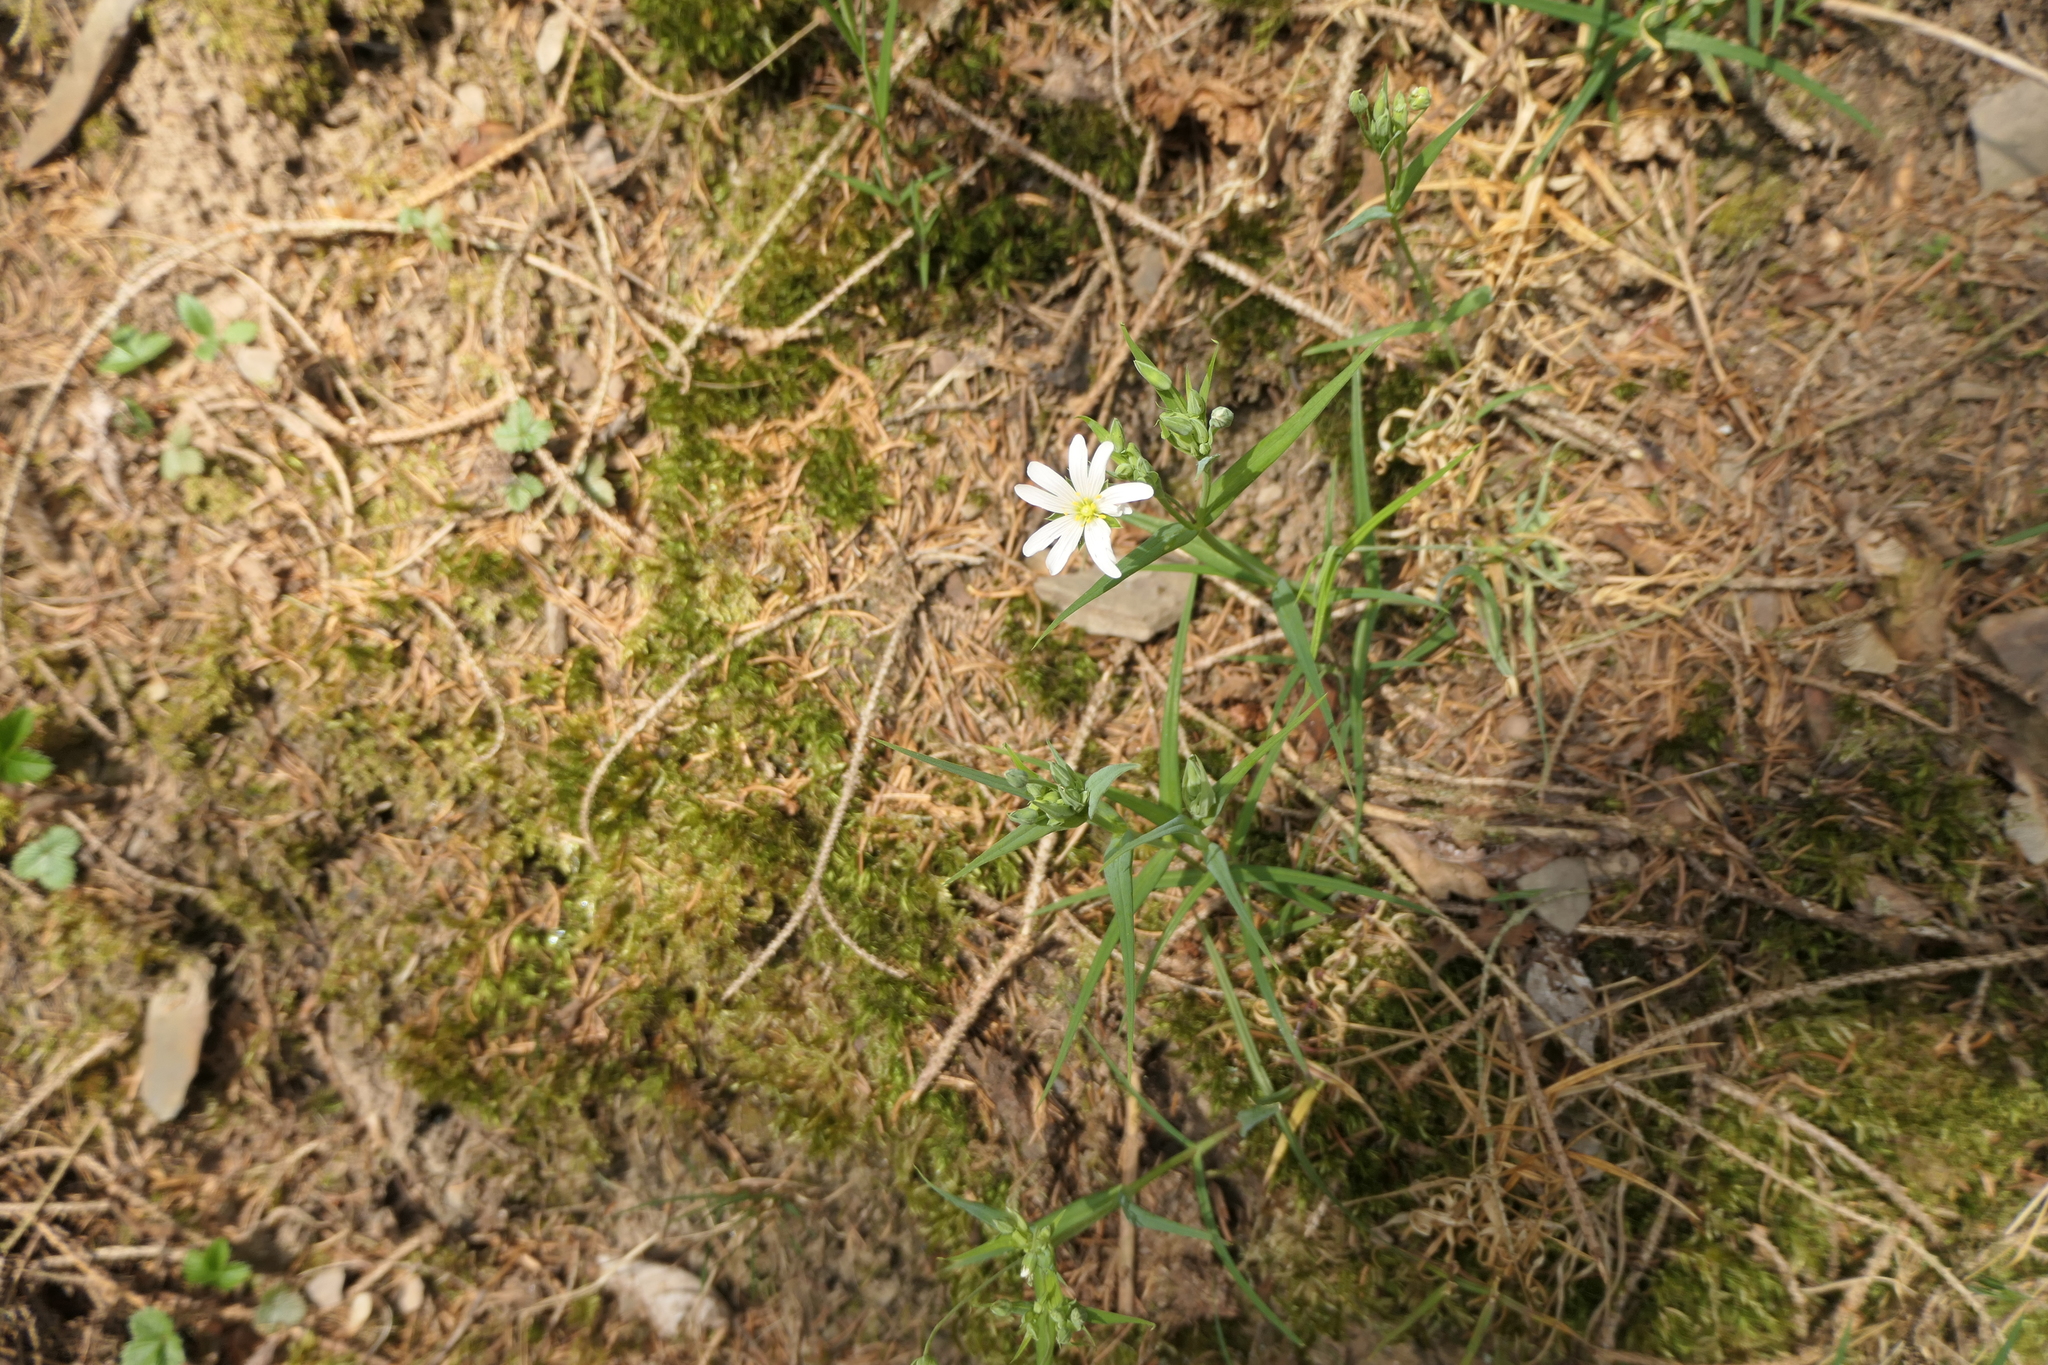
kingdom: Plantae
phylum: Tracheophyta
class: Magnoliopsida
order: Caryophyllales
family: Caryophyllaceae
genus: Rabelera
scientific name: Rabelera holostea
